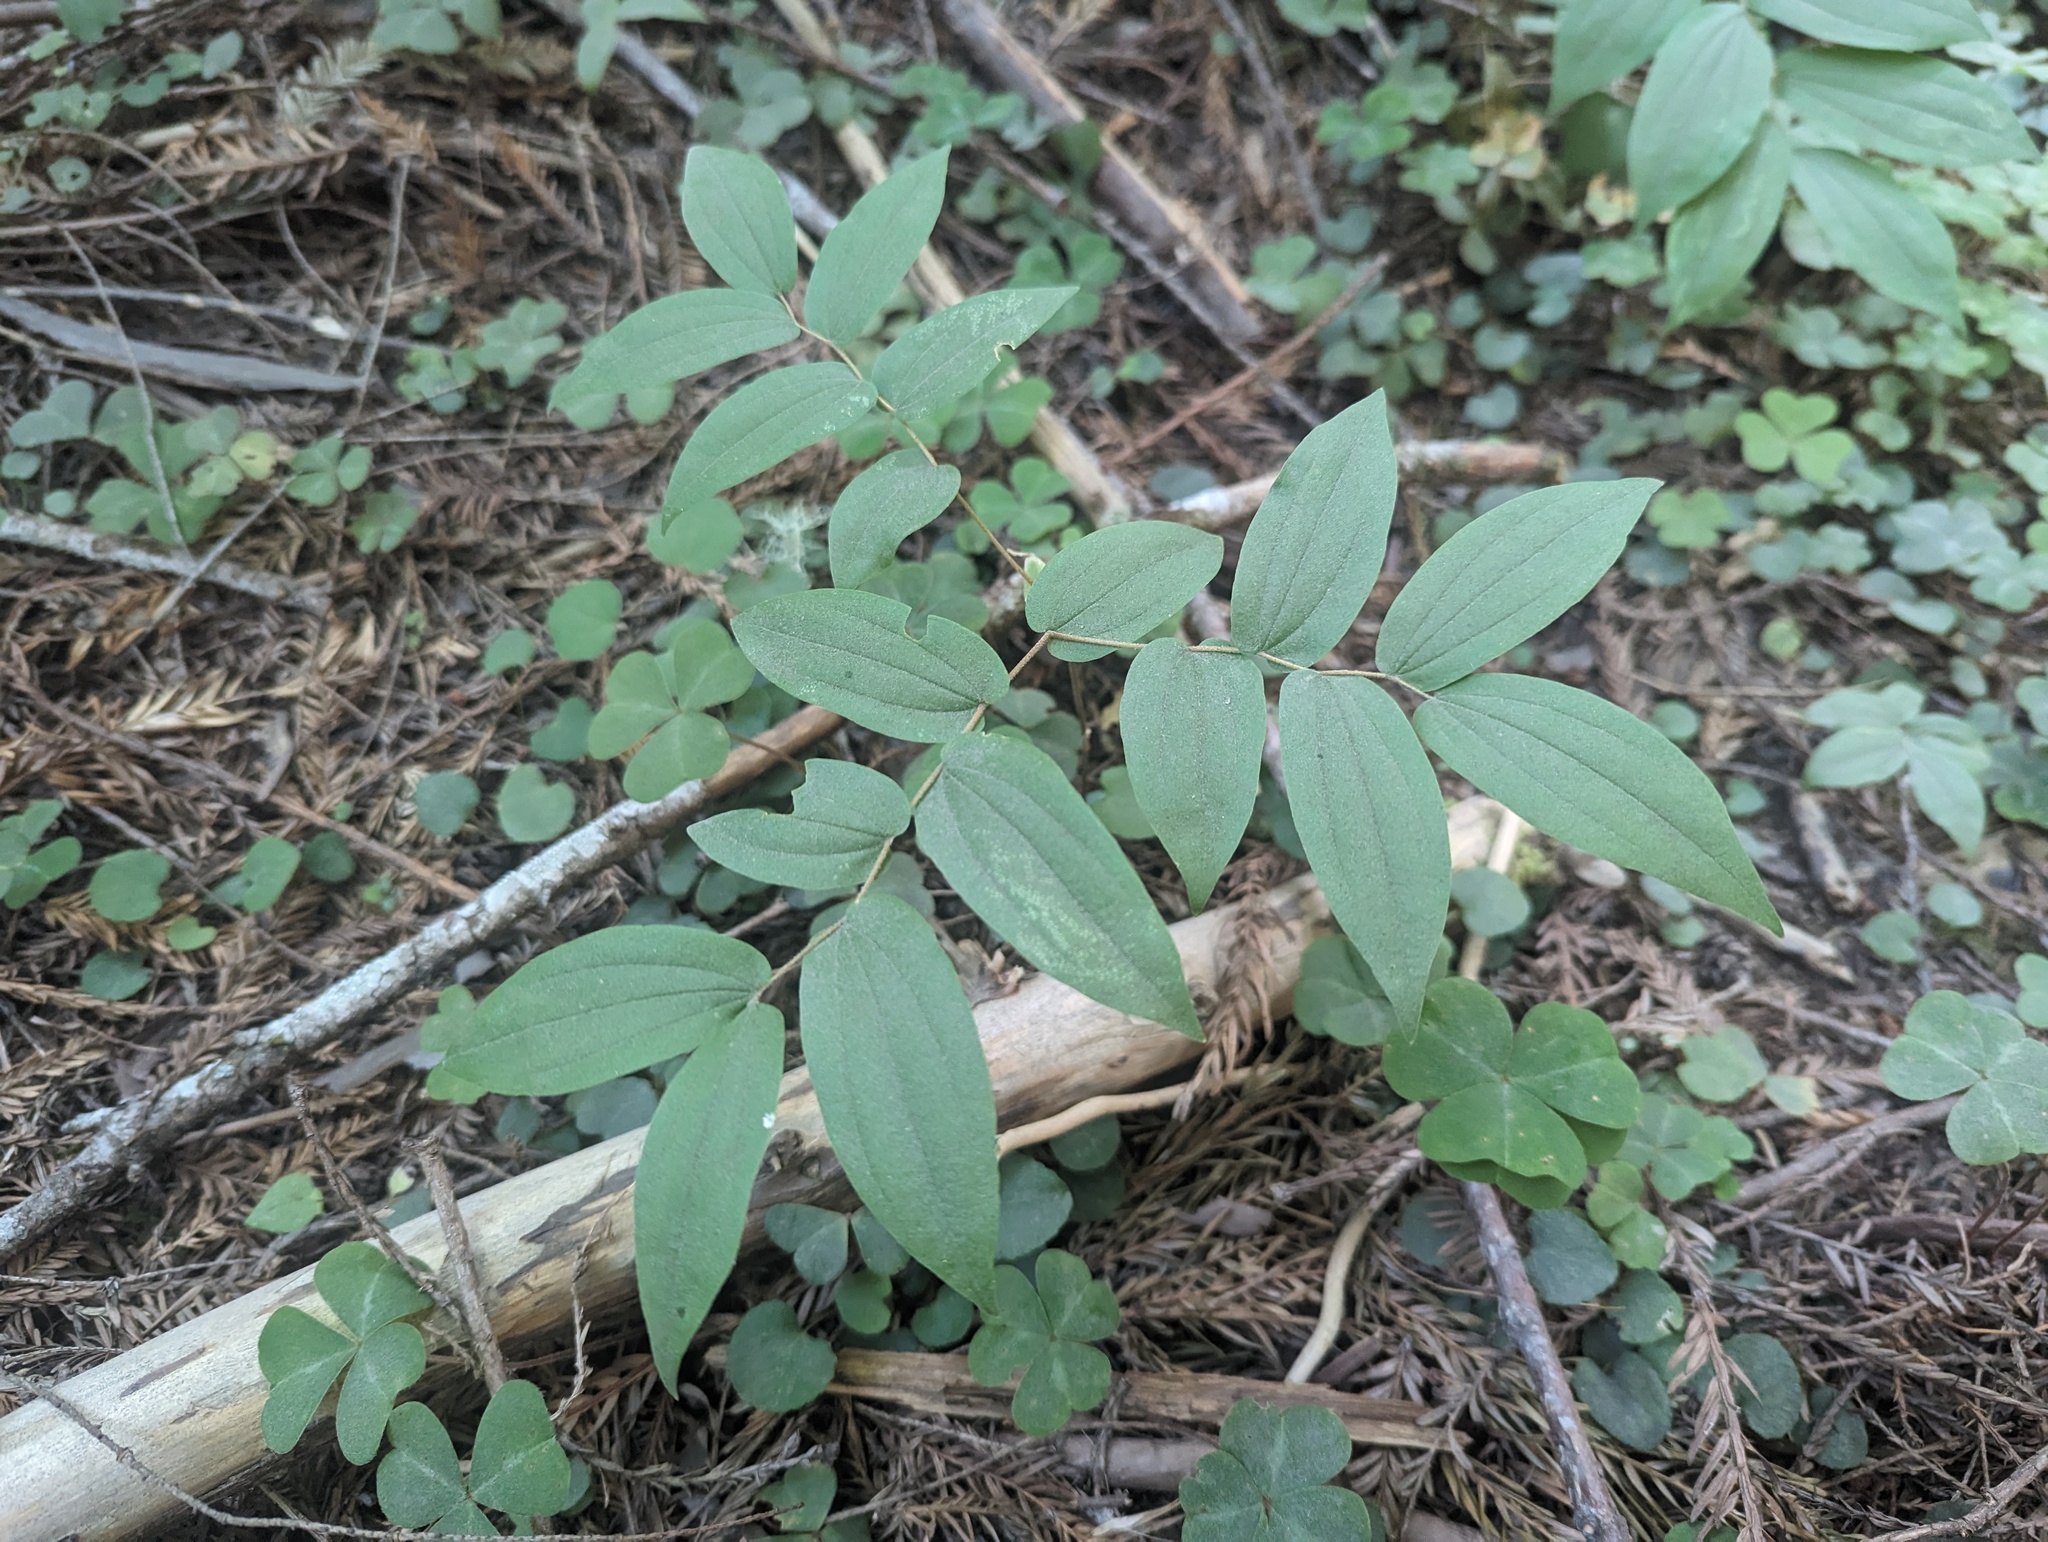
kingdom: Plantae
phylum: Tracheophyta
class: Liliopsida
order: Liliales
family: Liliaceae
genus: Prosartes
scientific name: Prosartes hookeri
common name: Fairy-bells
